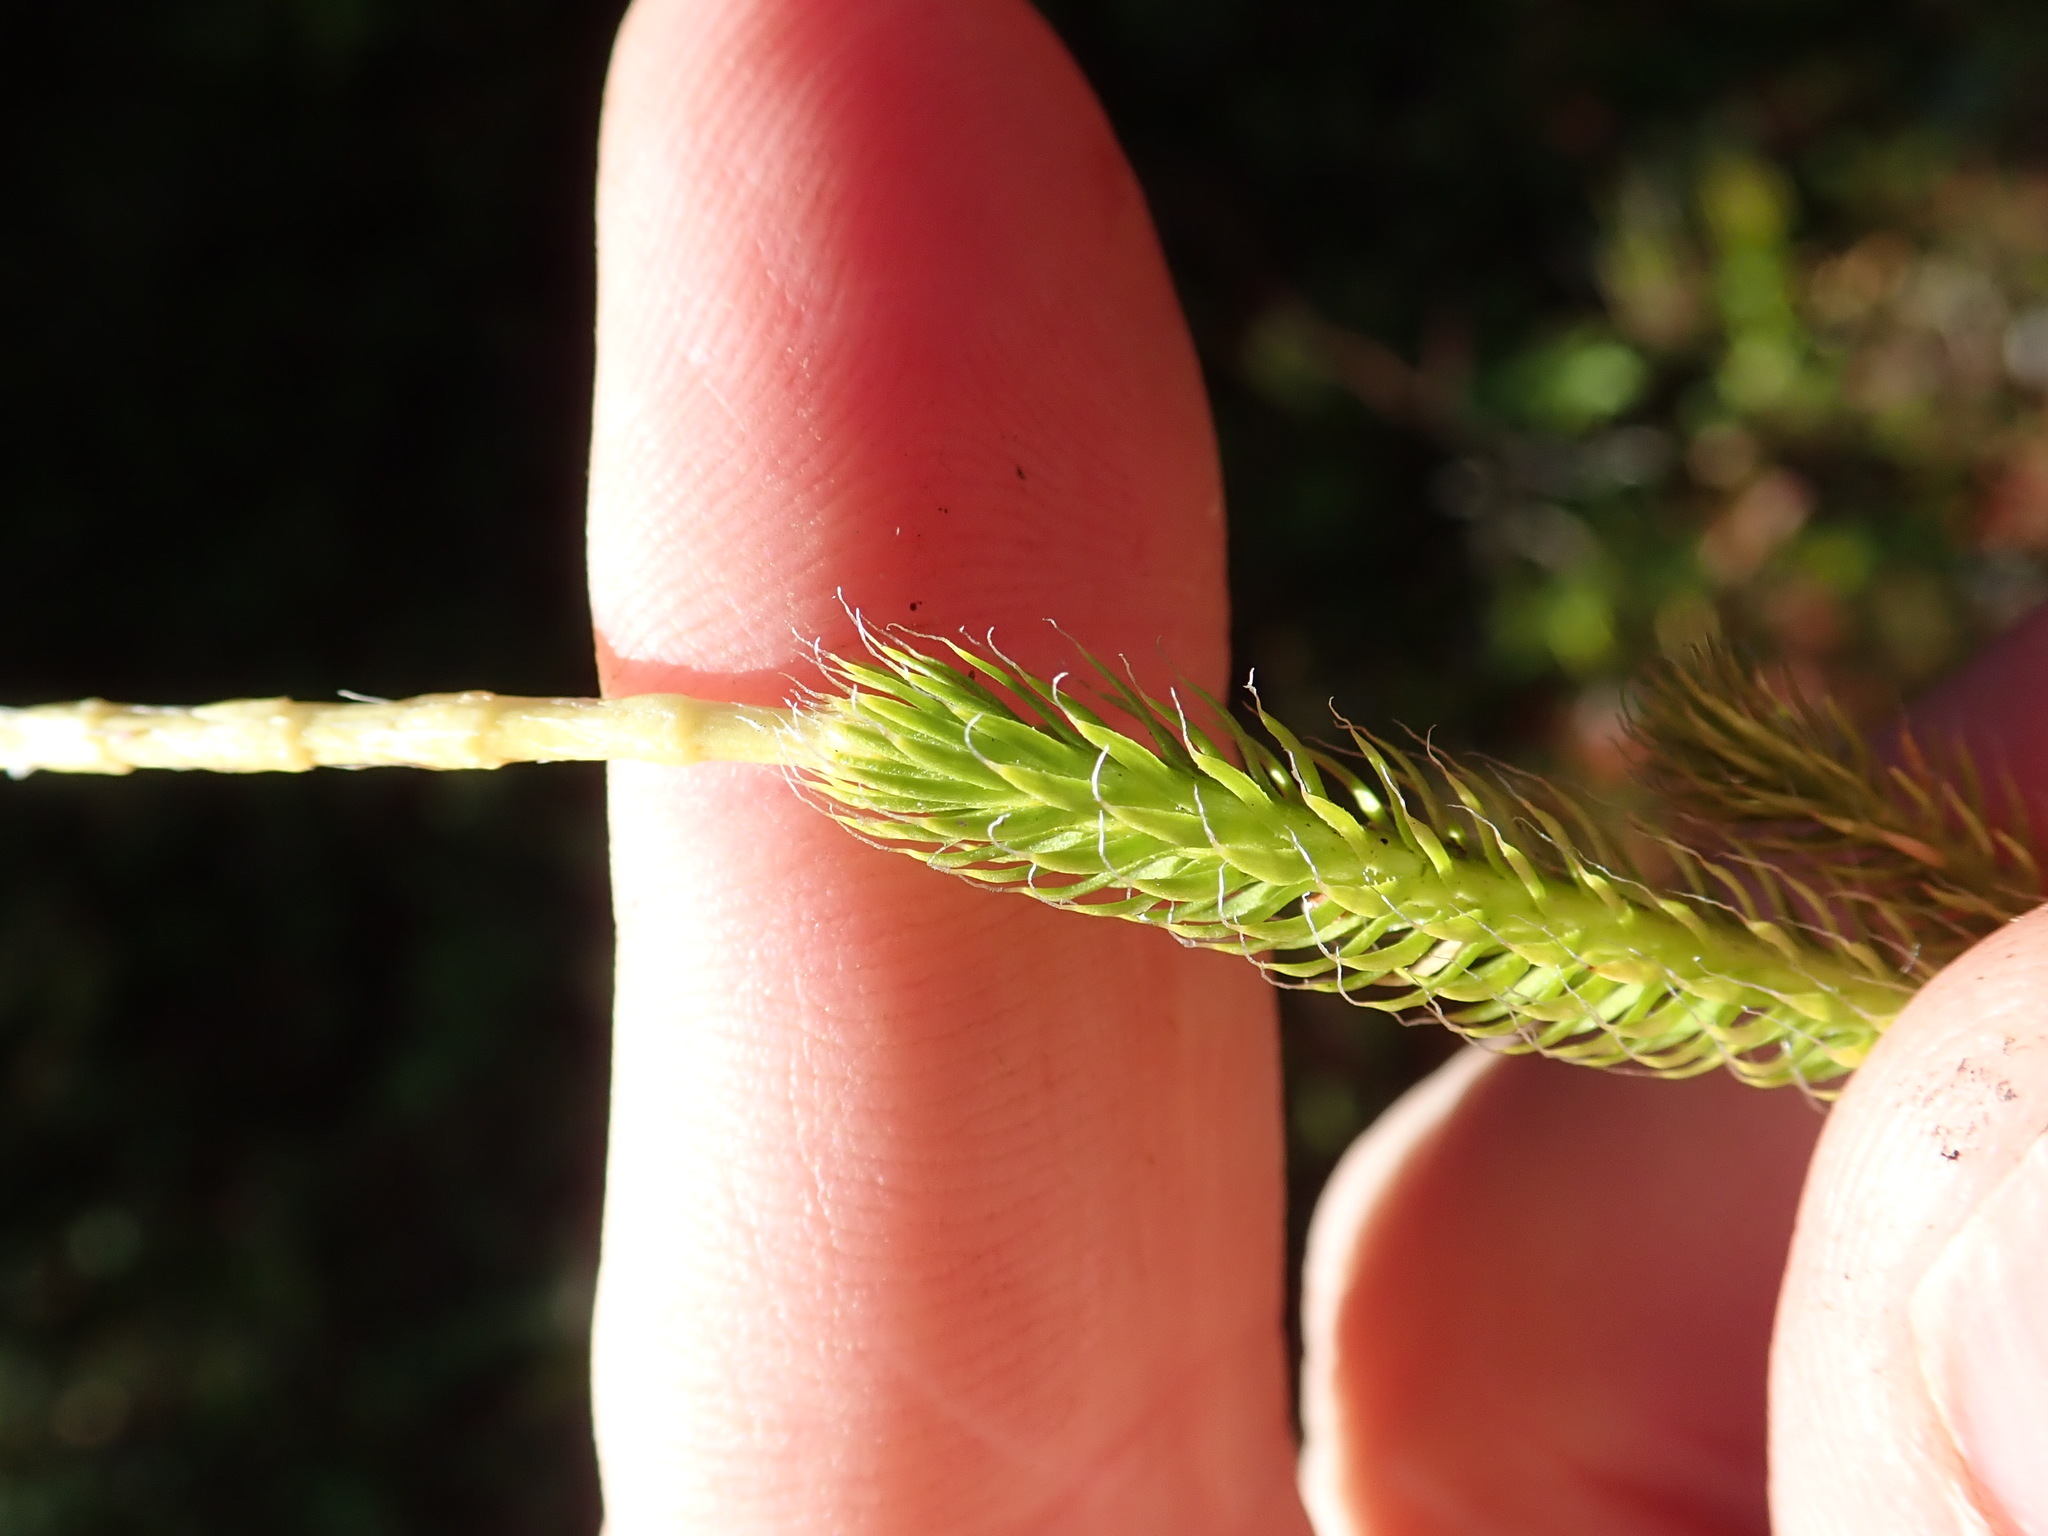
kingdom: Plantae
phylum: Tracheophyta
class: Lycopodiopsida
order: Lycopodiales
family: Lycopodiaceae
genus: Lycopodium
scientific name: Lycopodium clavatum
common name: Stag's-horn clubmoss
